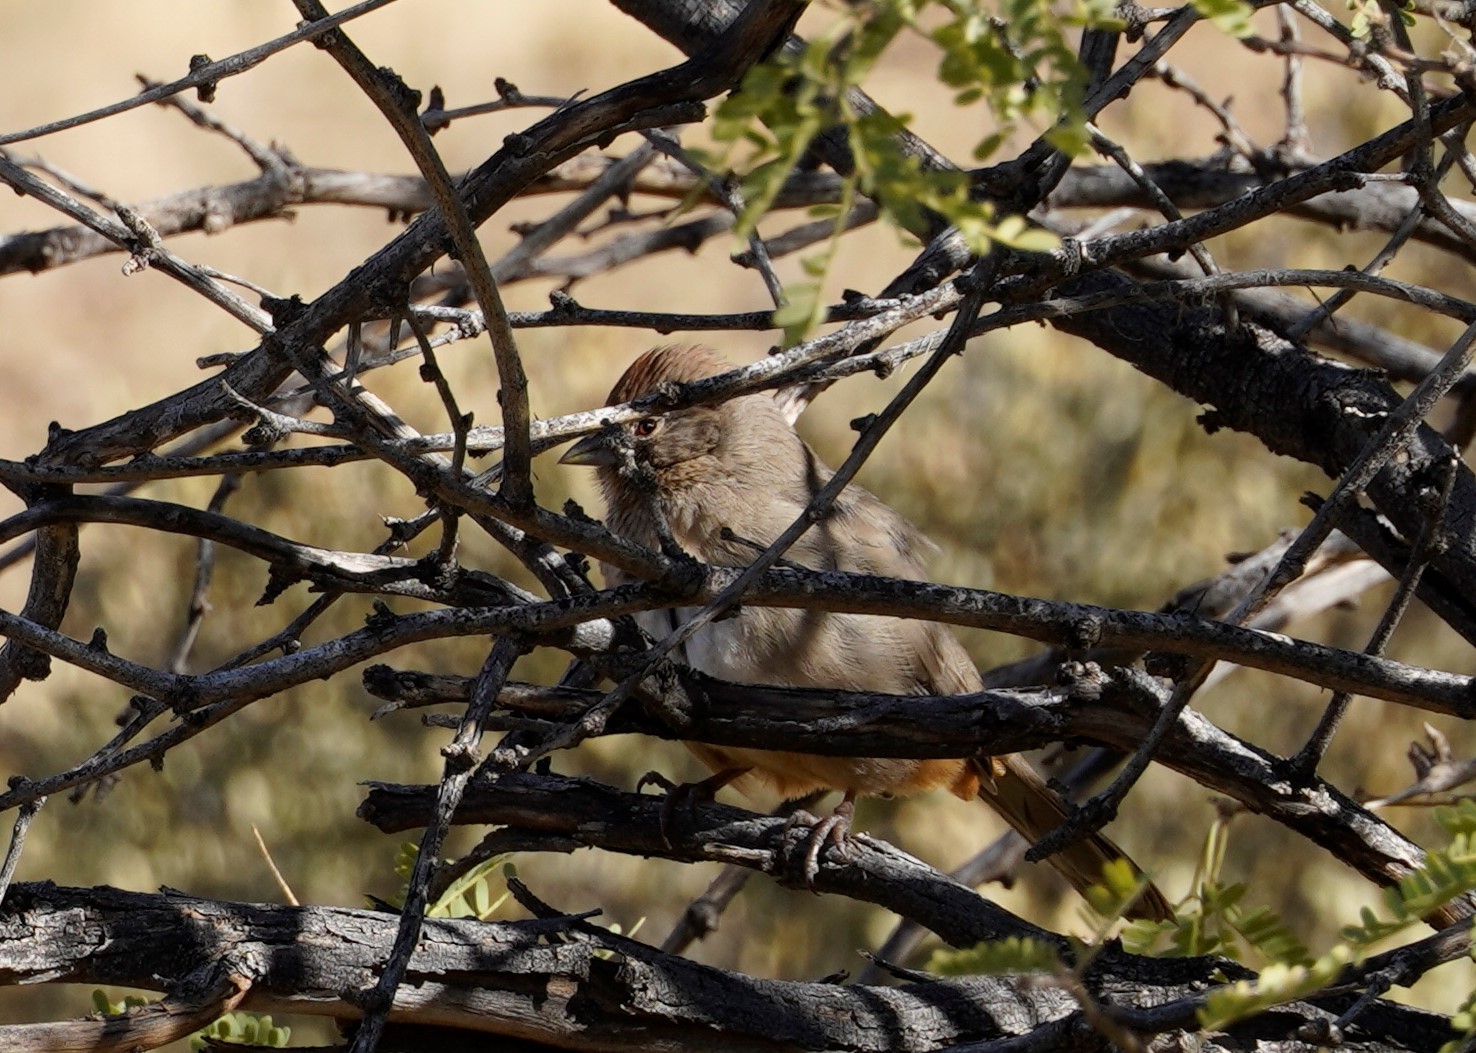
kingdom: Animalia
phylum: Chordata
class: Aves
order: Passeriformes
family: Passerellidae
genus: Melozone
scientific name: Melozone fusca
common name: Canyon towhee
